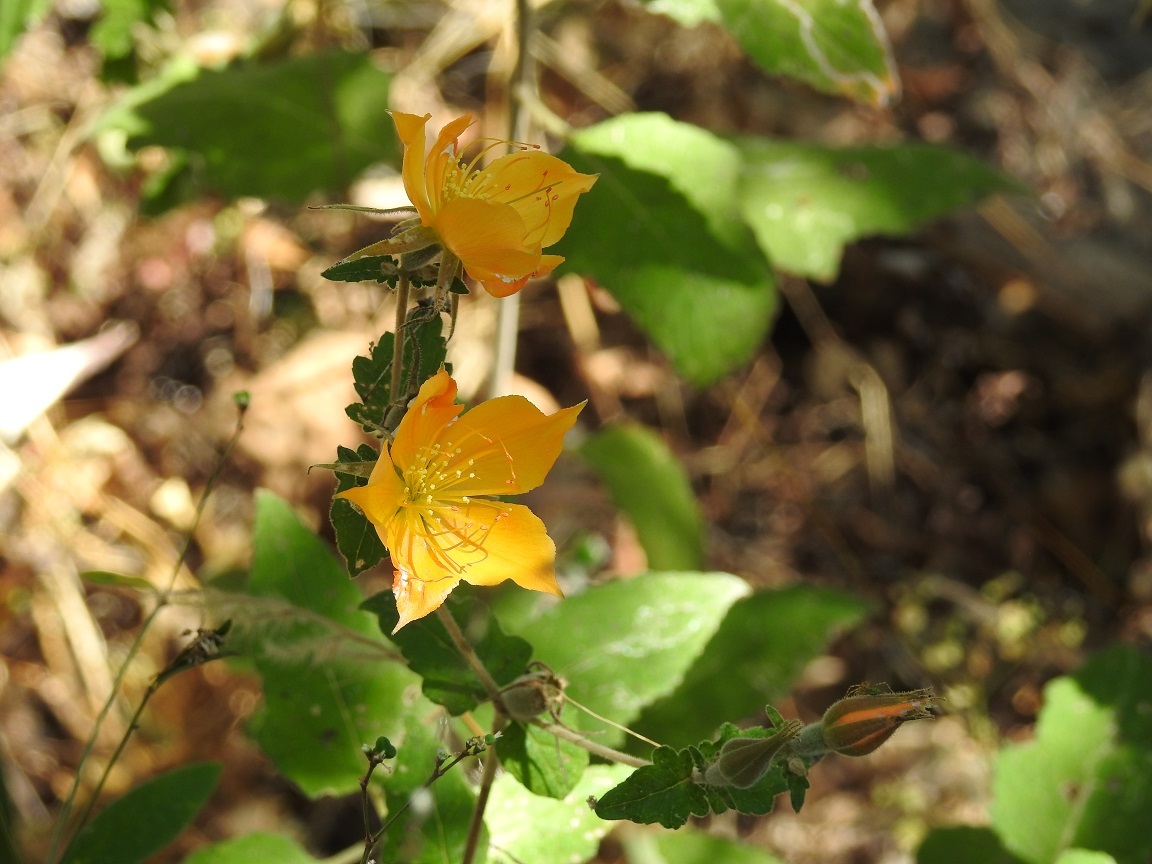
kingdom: Plantae
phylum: Tracheophyta
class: Magnoliopsida
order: Cornales
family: Loasaceae
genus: Mentzelia
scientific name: Mentzelia hispida
